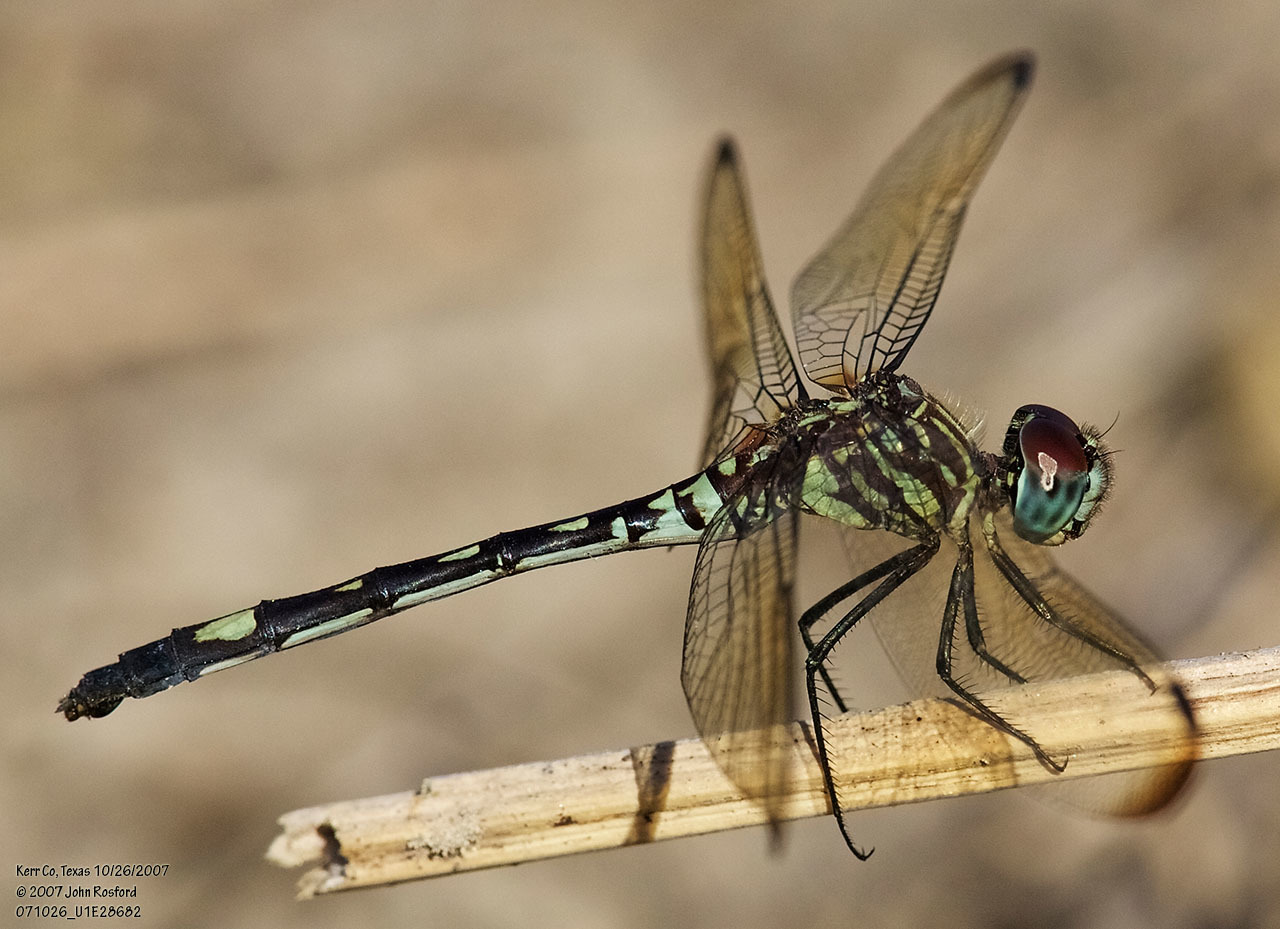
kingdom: Animalia
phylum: Arthropoda
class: Insecta
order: Odonata
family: Libellulidae
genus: Dythemis
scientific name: Dythemis velox
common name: Swift setwing
